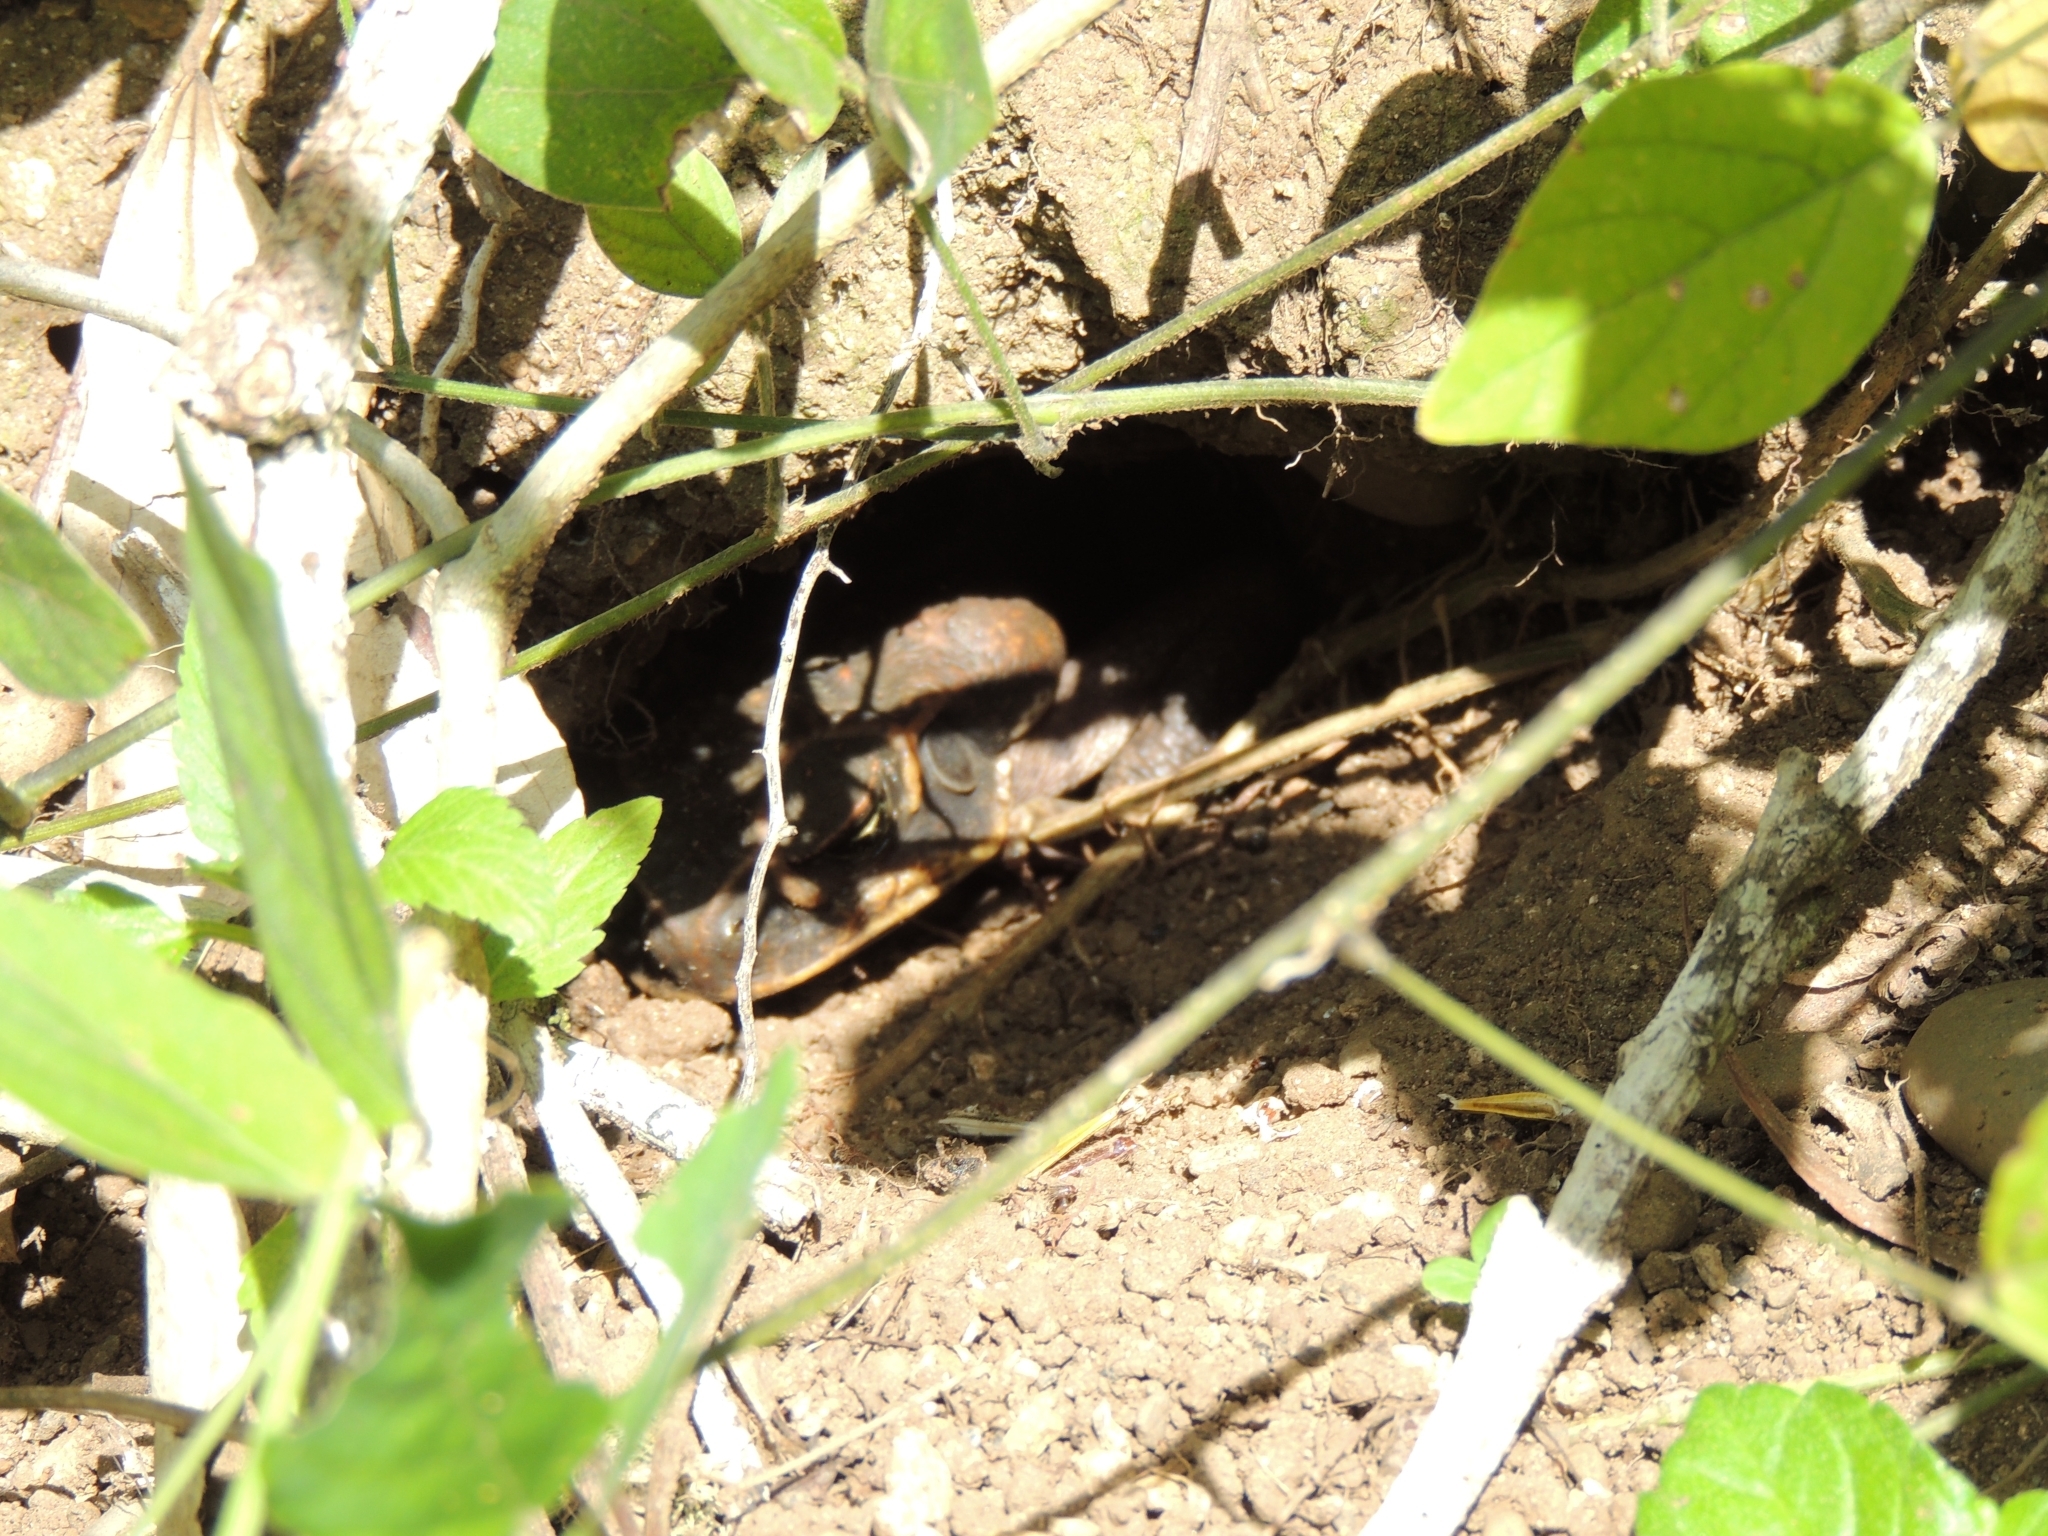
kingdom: Animalia
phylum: Chordata
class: Amphibia
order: Anura
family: Bufonidae
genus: Rhinella
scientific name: Rhinella marina
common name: Cane toad
